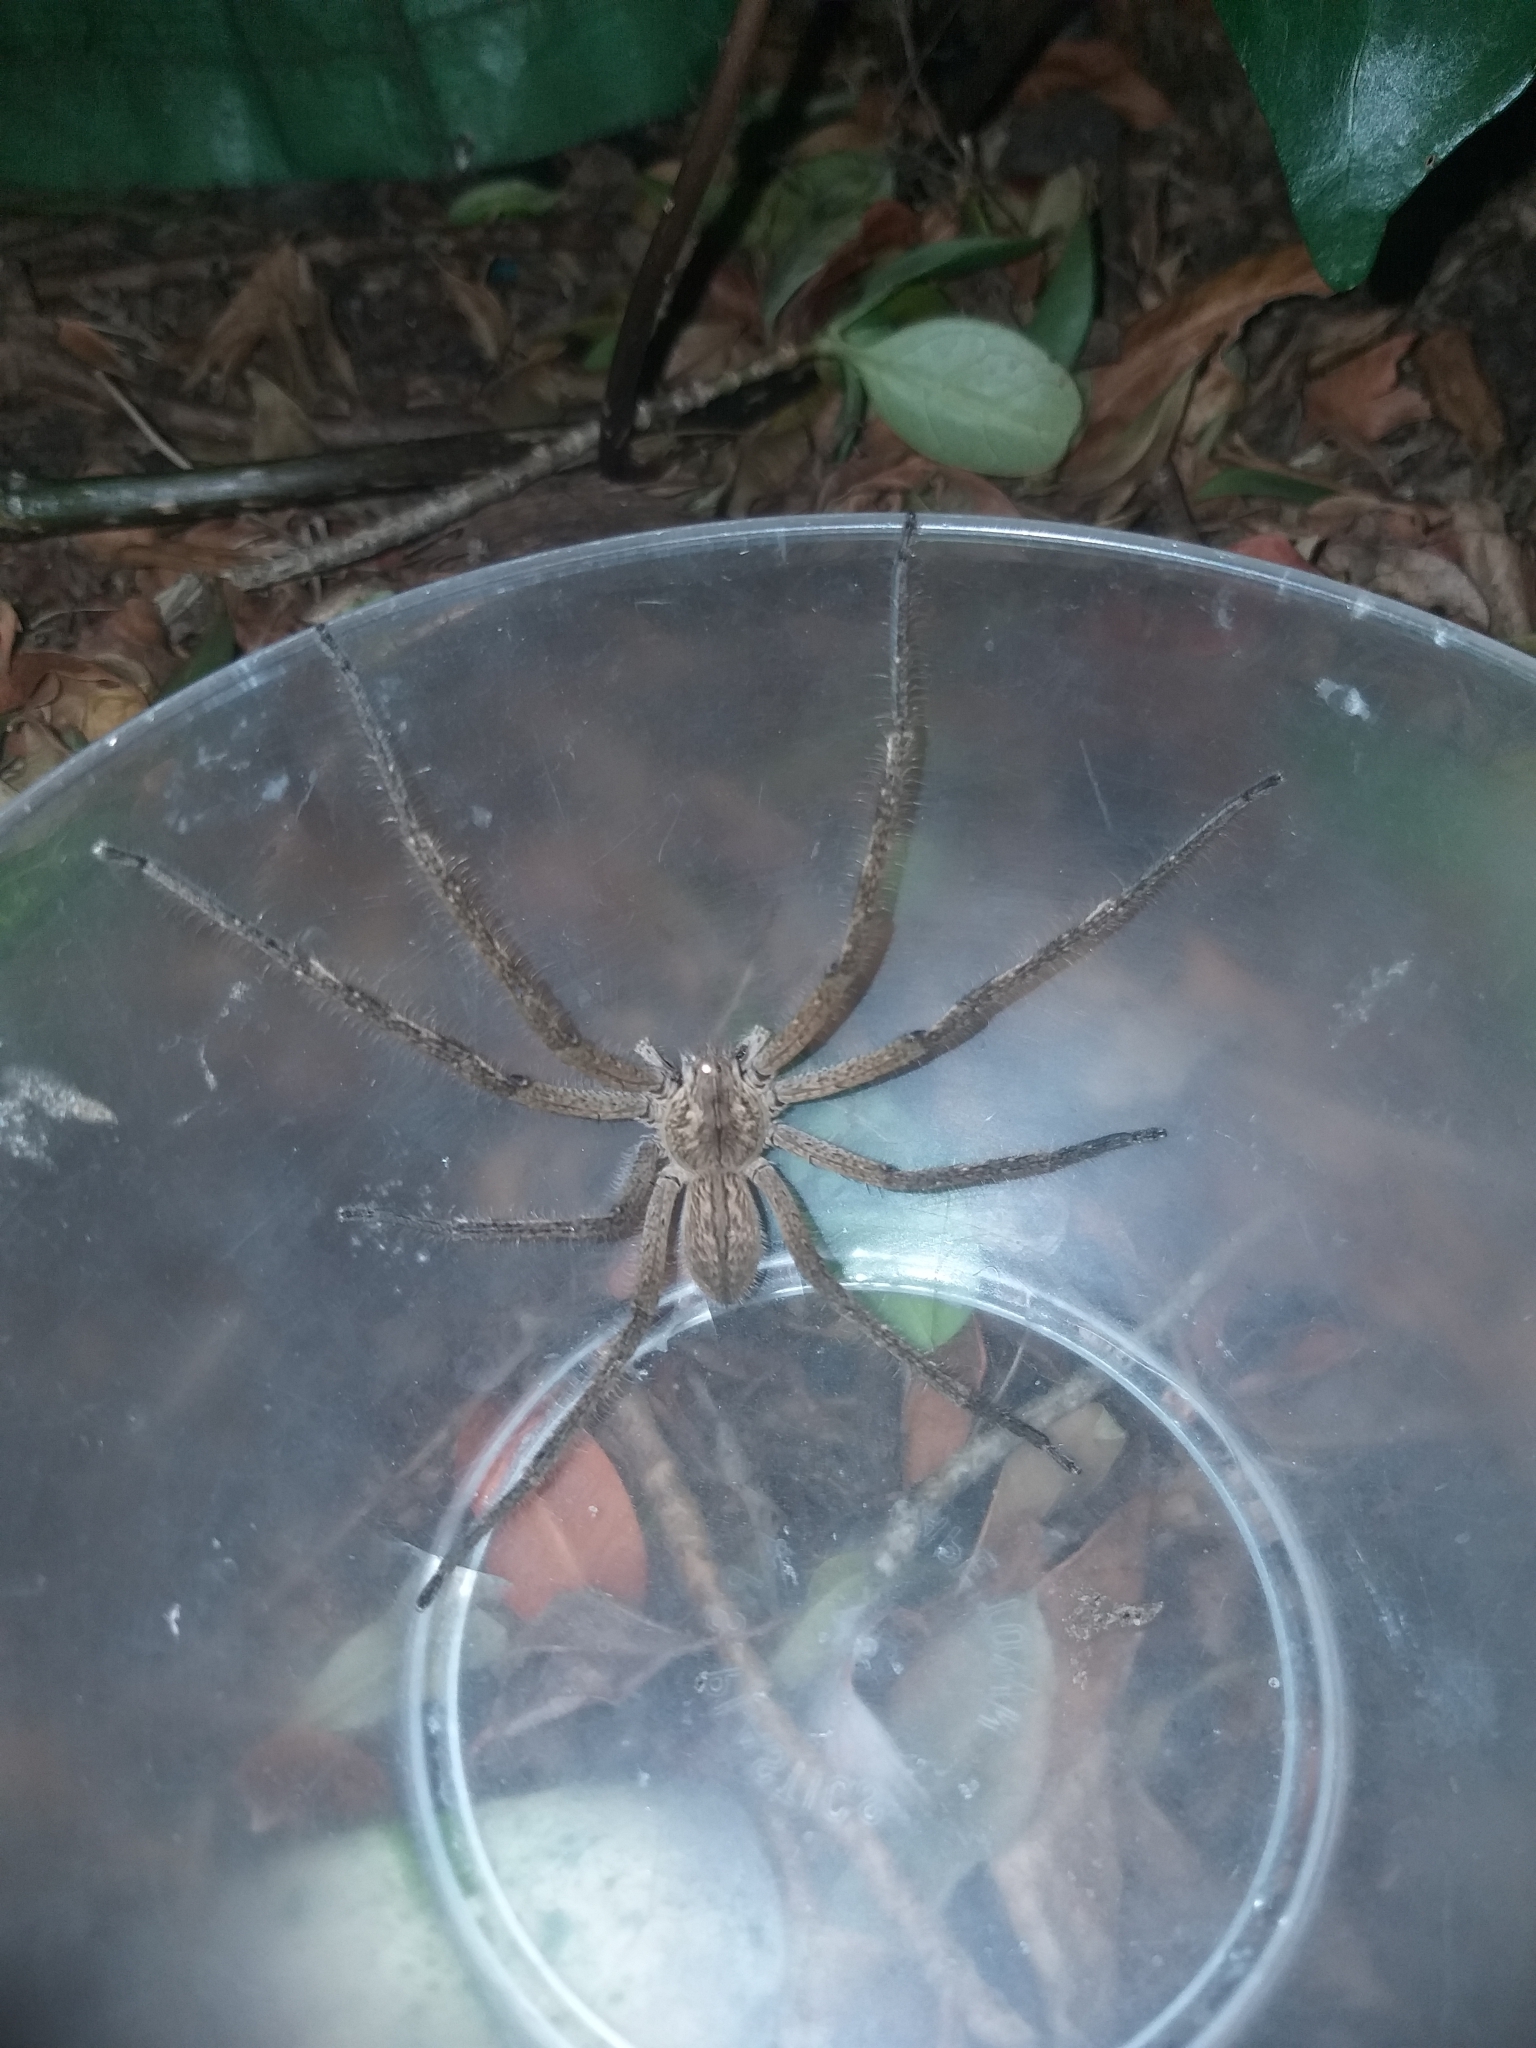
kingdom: Animalia
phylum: Arthropoda
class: Arachnida
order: Araneae
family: Sparassidae
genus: Palystes
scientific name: Palystes superciliosus
